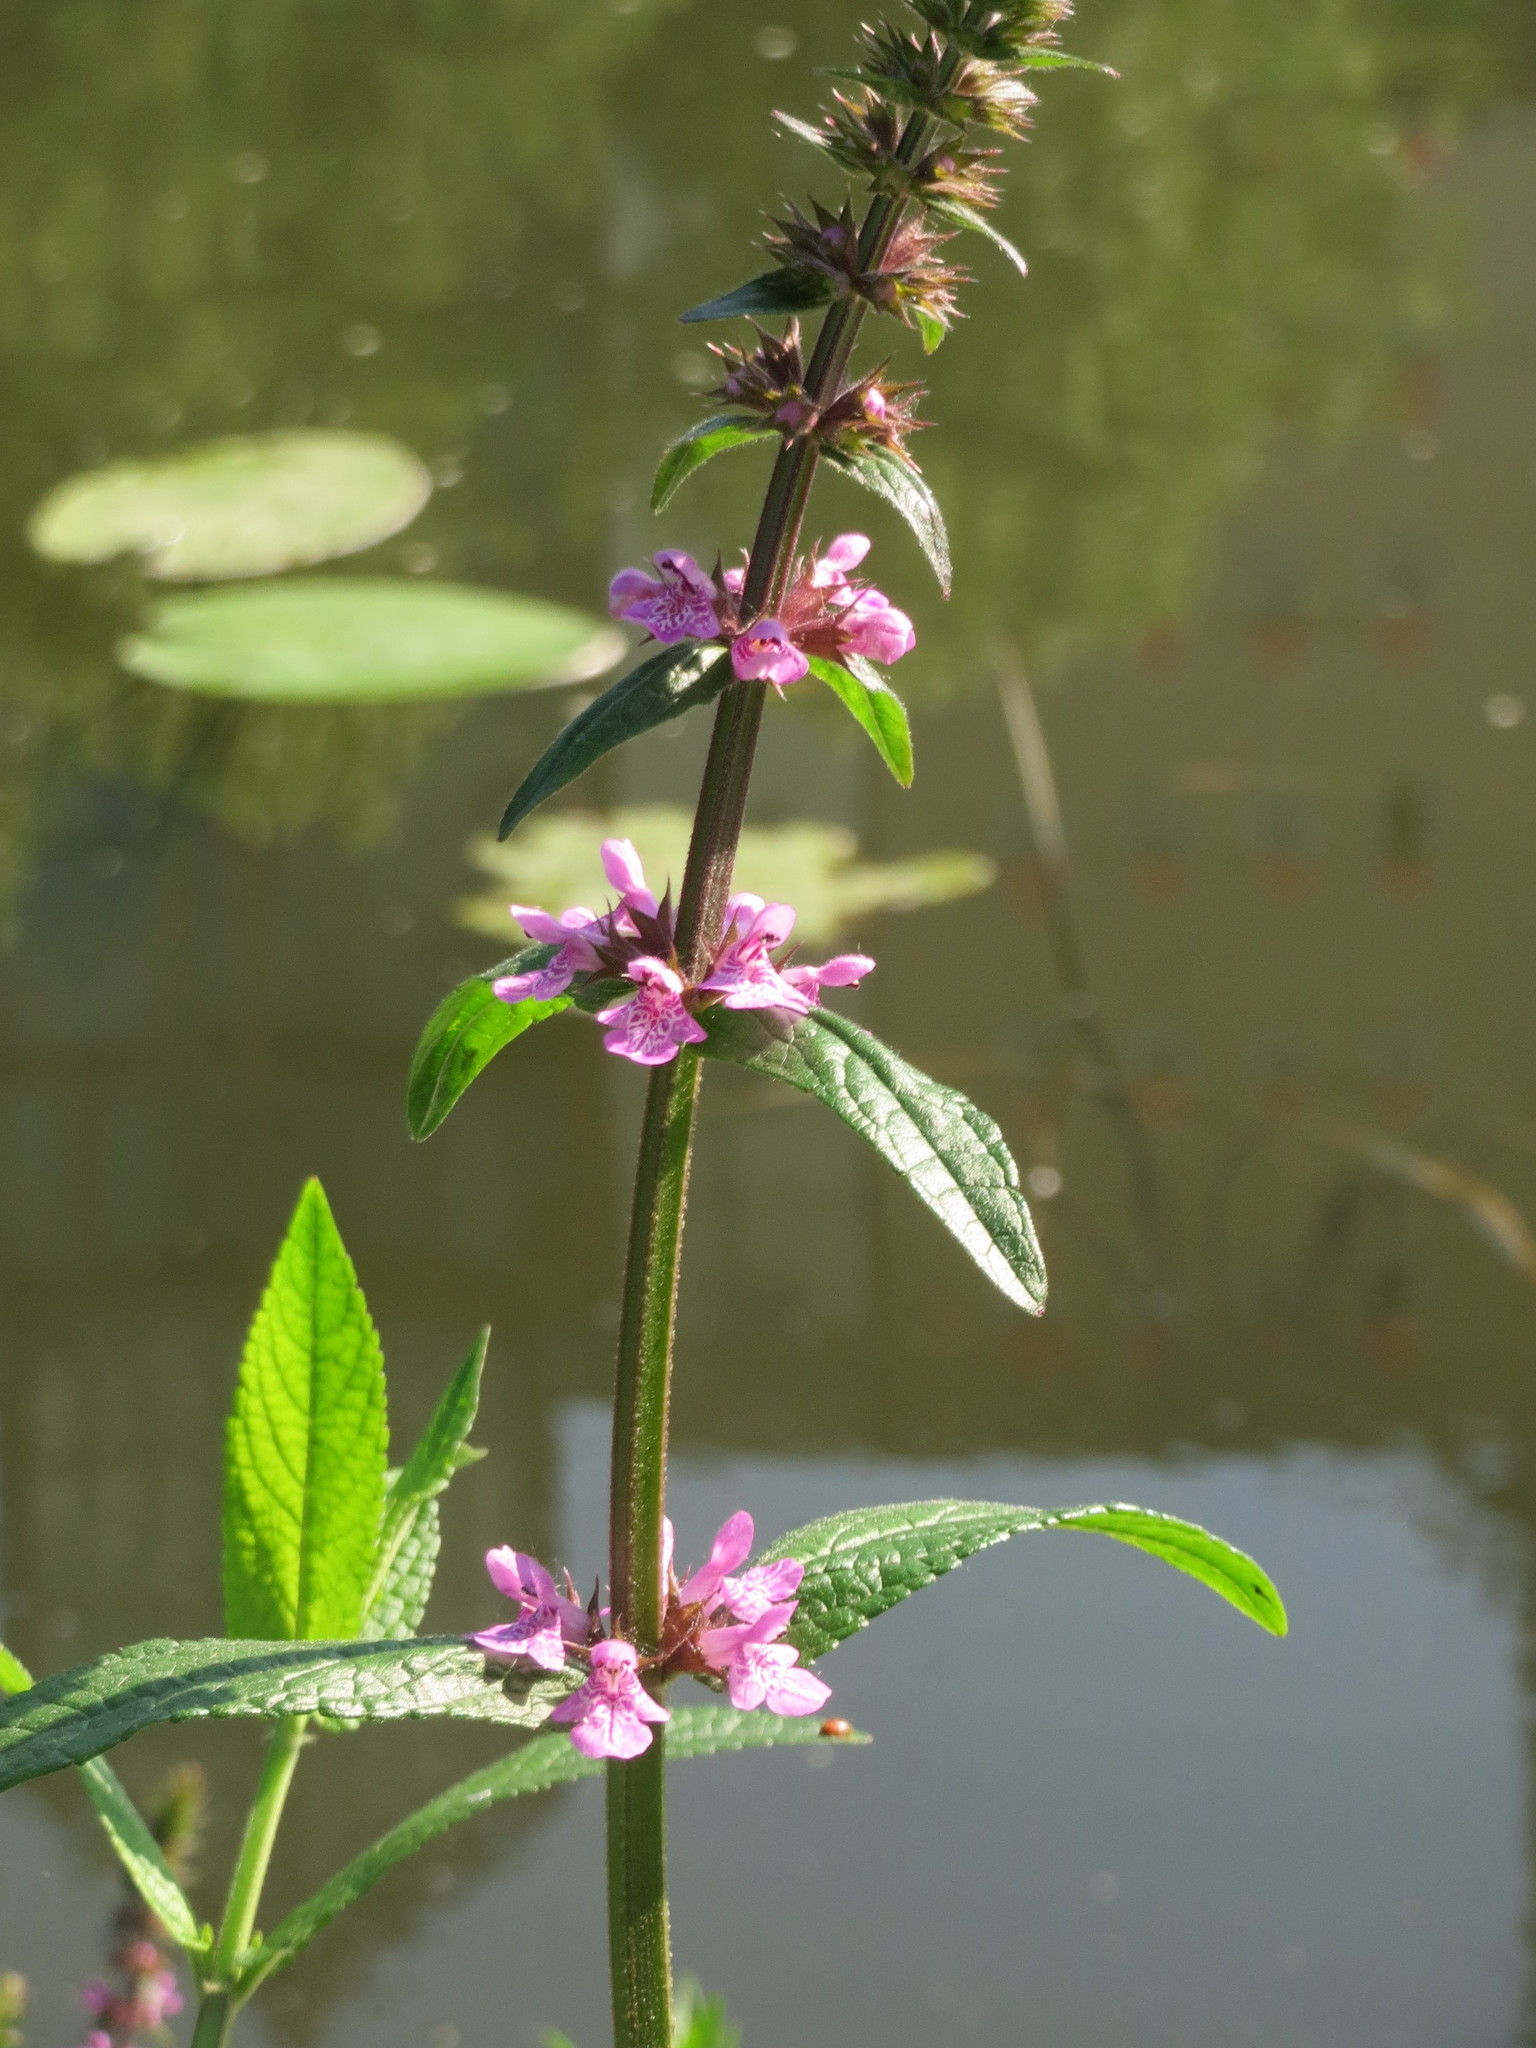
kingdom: Plantae
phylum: Tracheophyta
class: Magnoliopsida
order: Lamiales
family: Lamiaceae
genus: Stachys
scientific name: Stachys palustris
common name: Marsh woundwort
